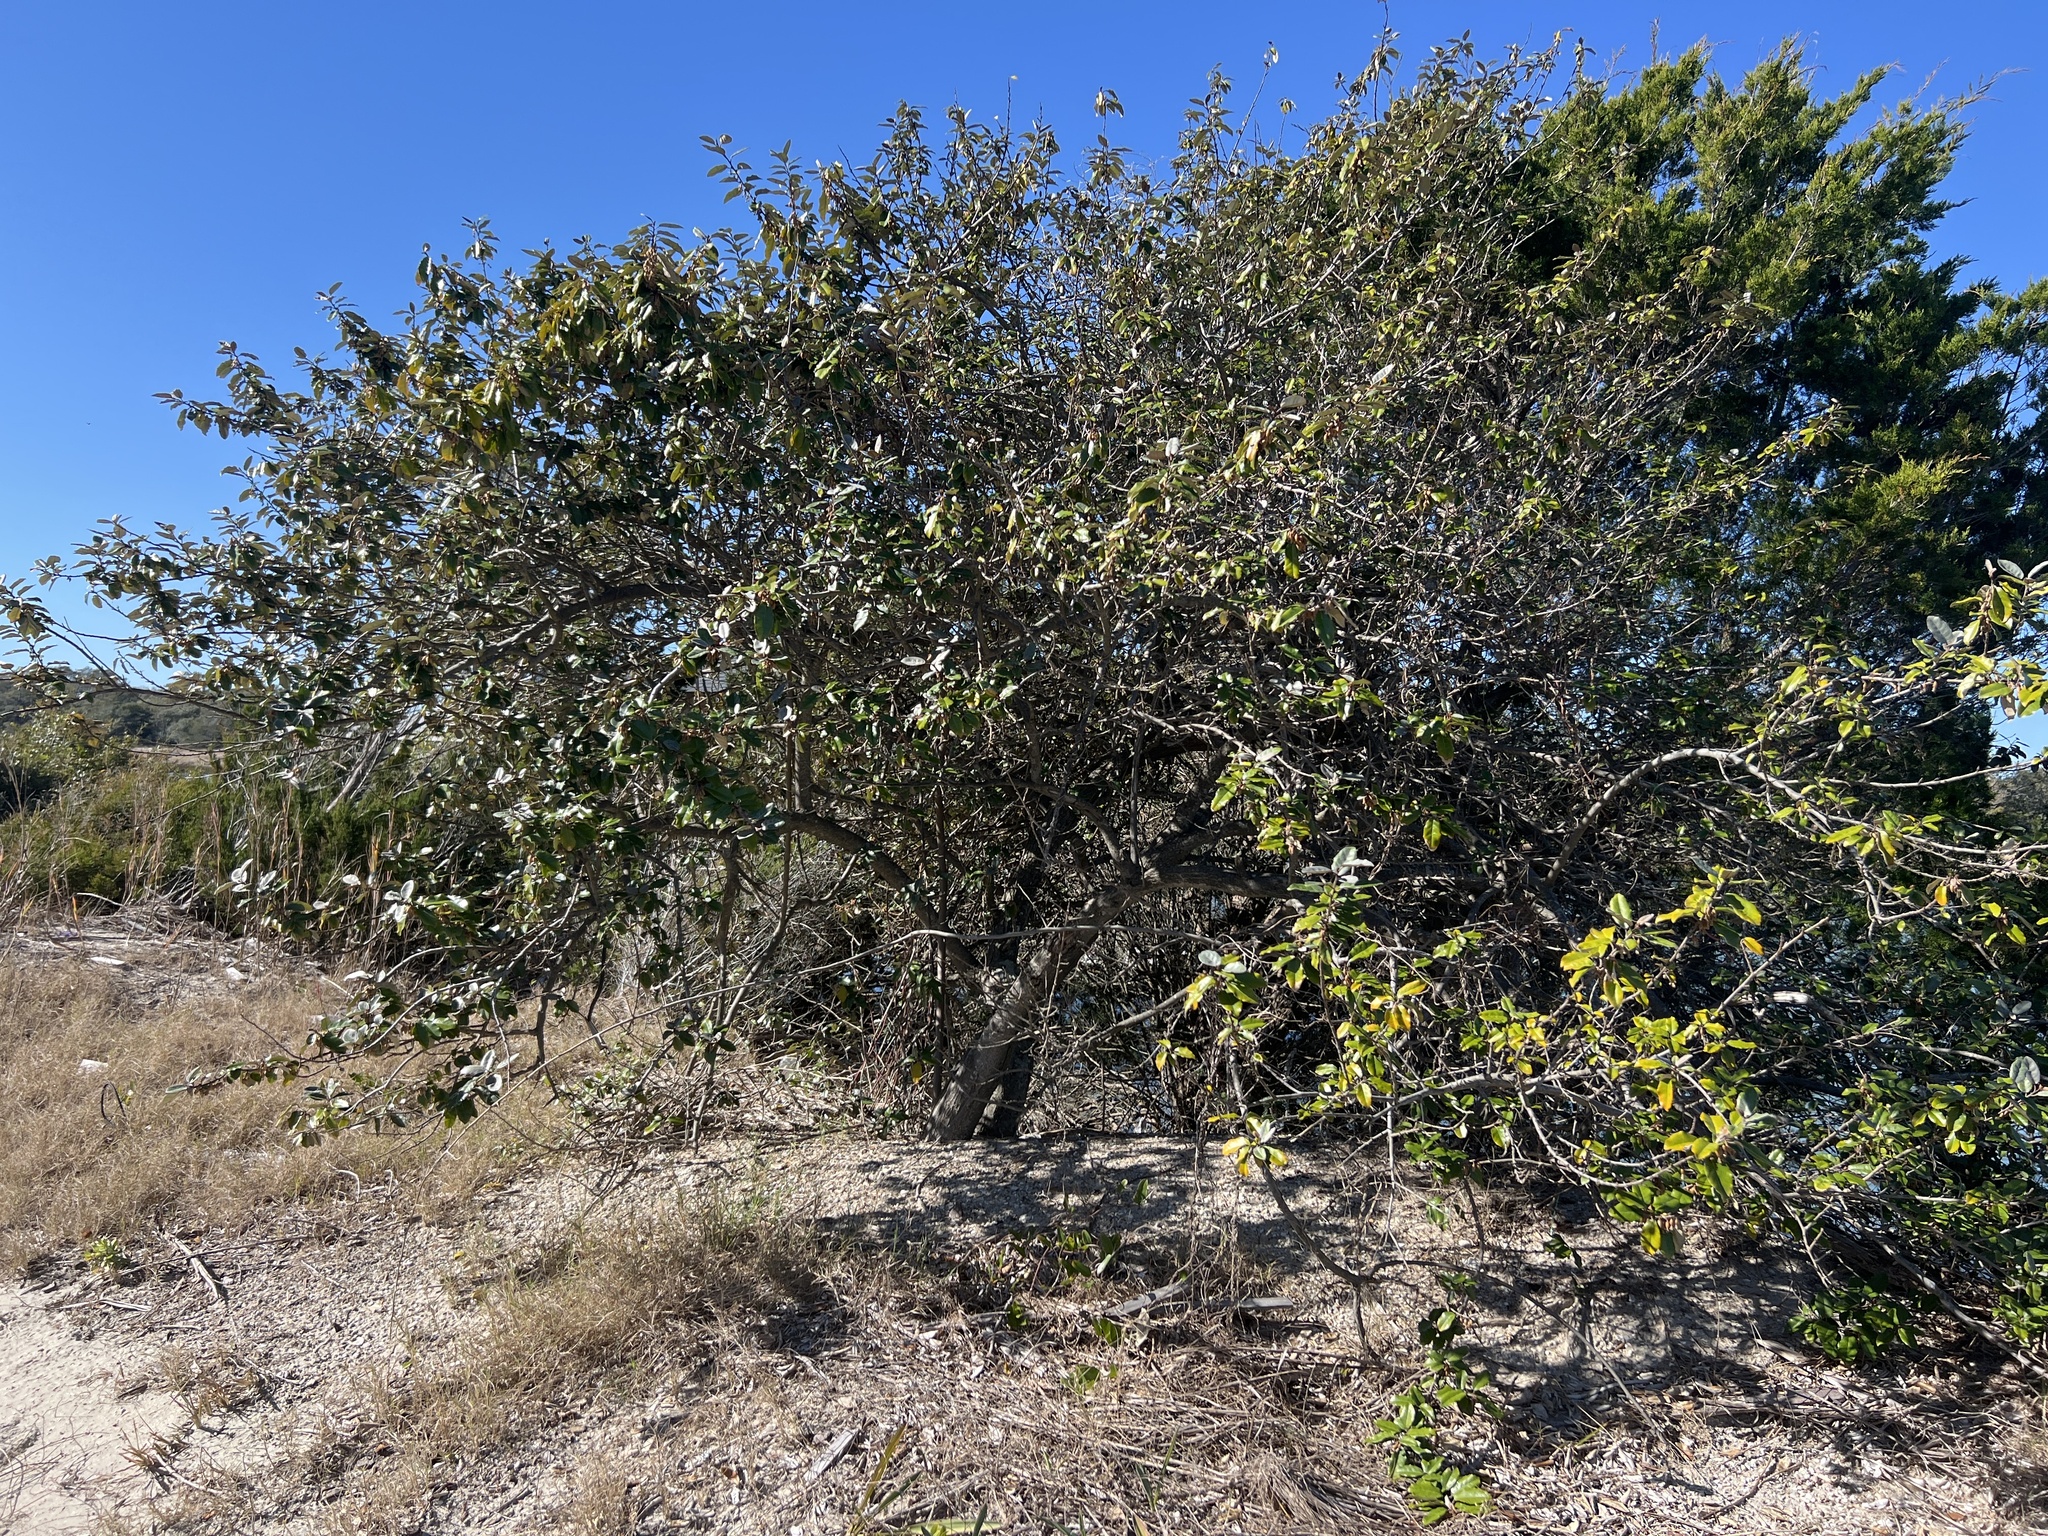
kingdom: Plantae
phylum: Tracheophyta
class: Magnoliopsida
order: Rosales
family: Elaeagnaceae
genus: Elaeagnus
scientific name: Elaeagnus pungens
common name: Spiny oleaster
